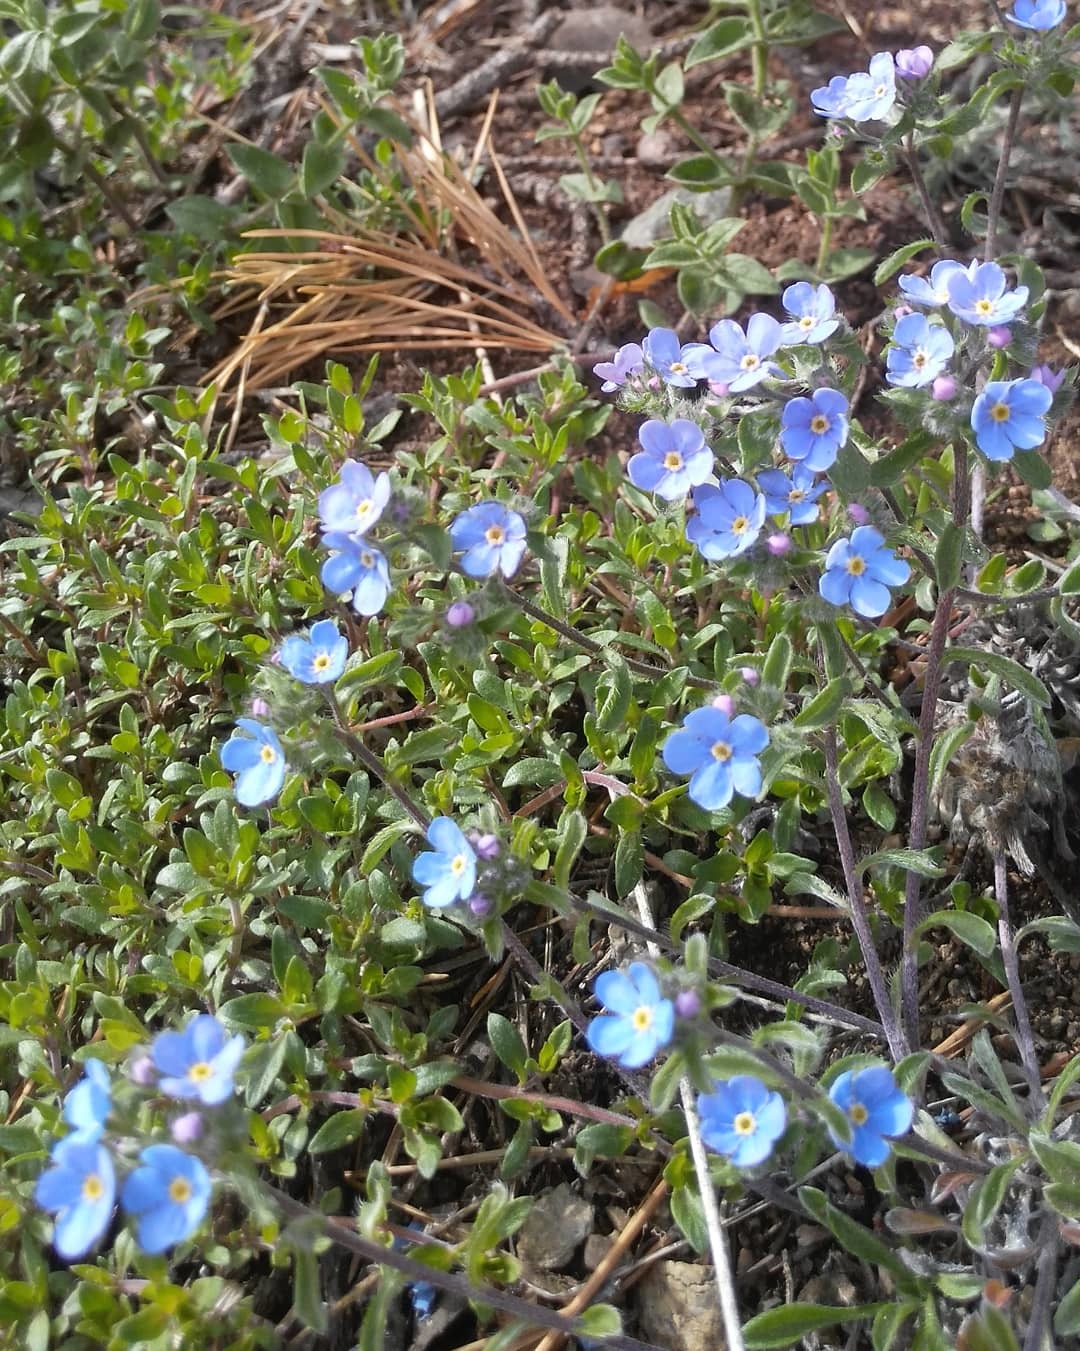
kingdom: Plantae
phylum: Tracheophyta
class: Magnoliopsida
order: Boraginales
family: Boraginaceae
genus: Eritrichium
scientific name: Eritrichium rupestre
